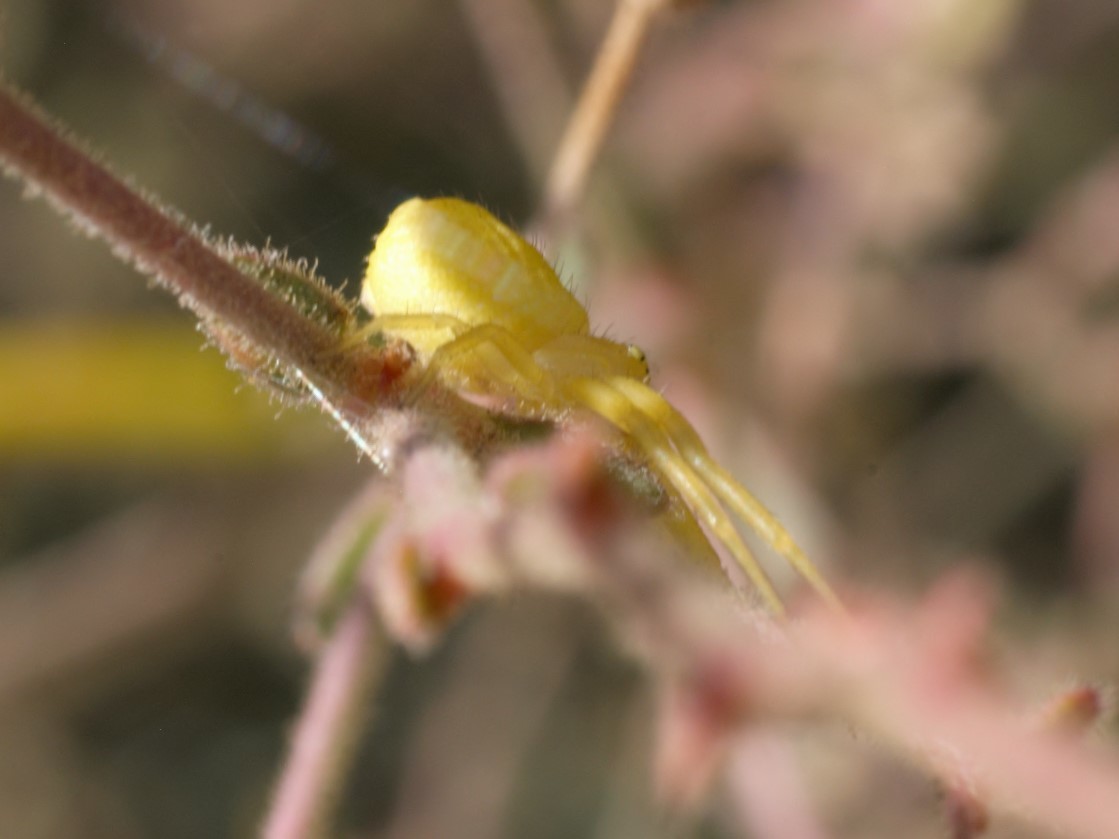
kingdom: Animalia
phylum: Arthropoda
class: Arachnida
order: Araneae
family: Thomisidae
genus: Misumena
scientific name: Misumena vatia
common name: Goldenrod crab spider
